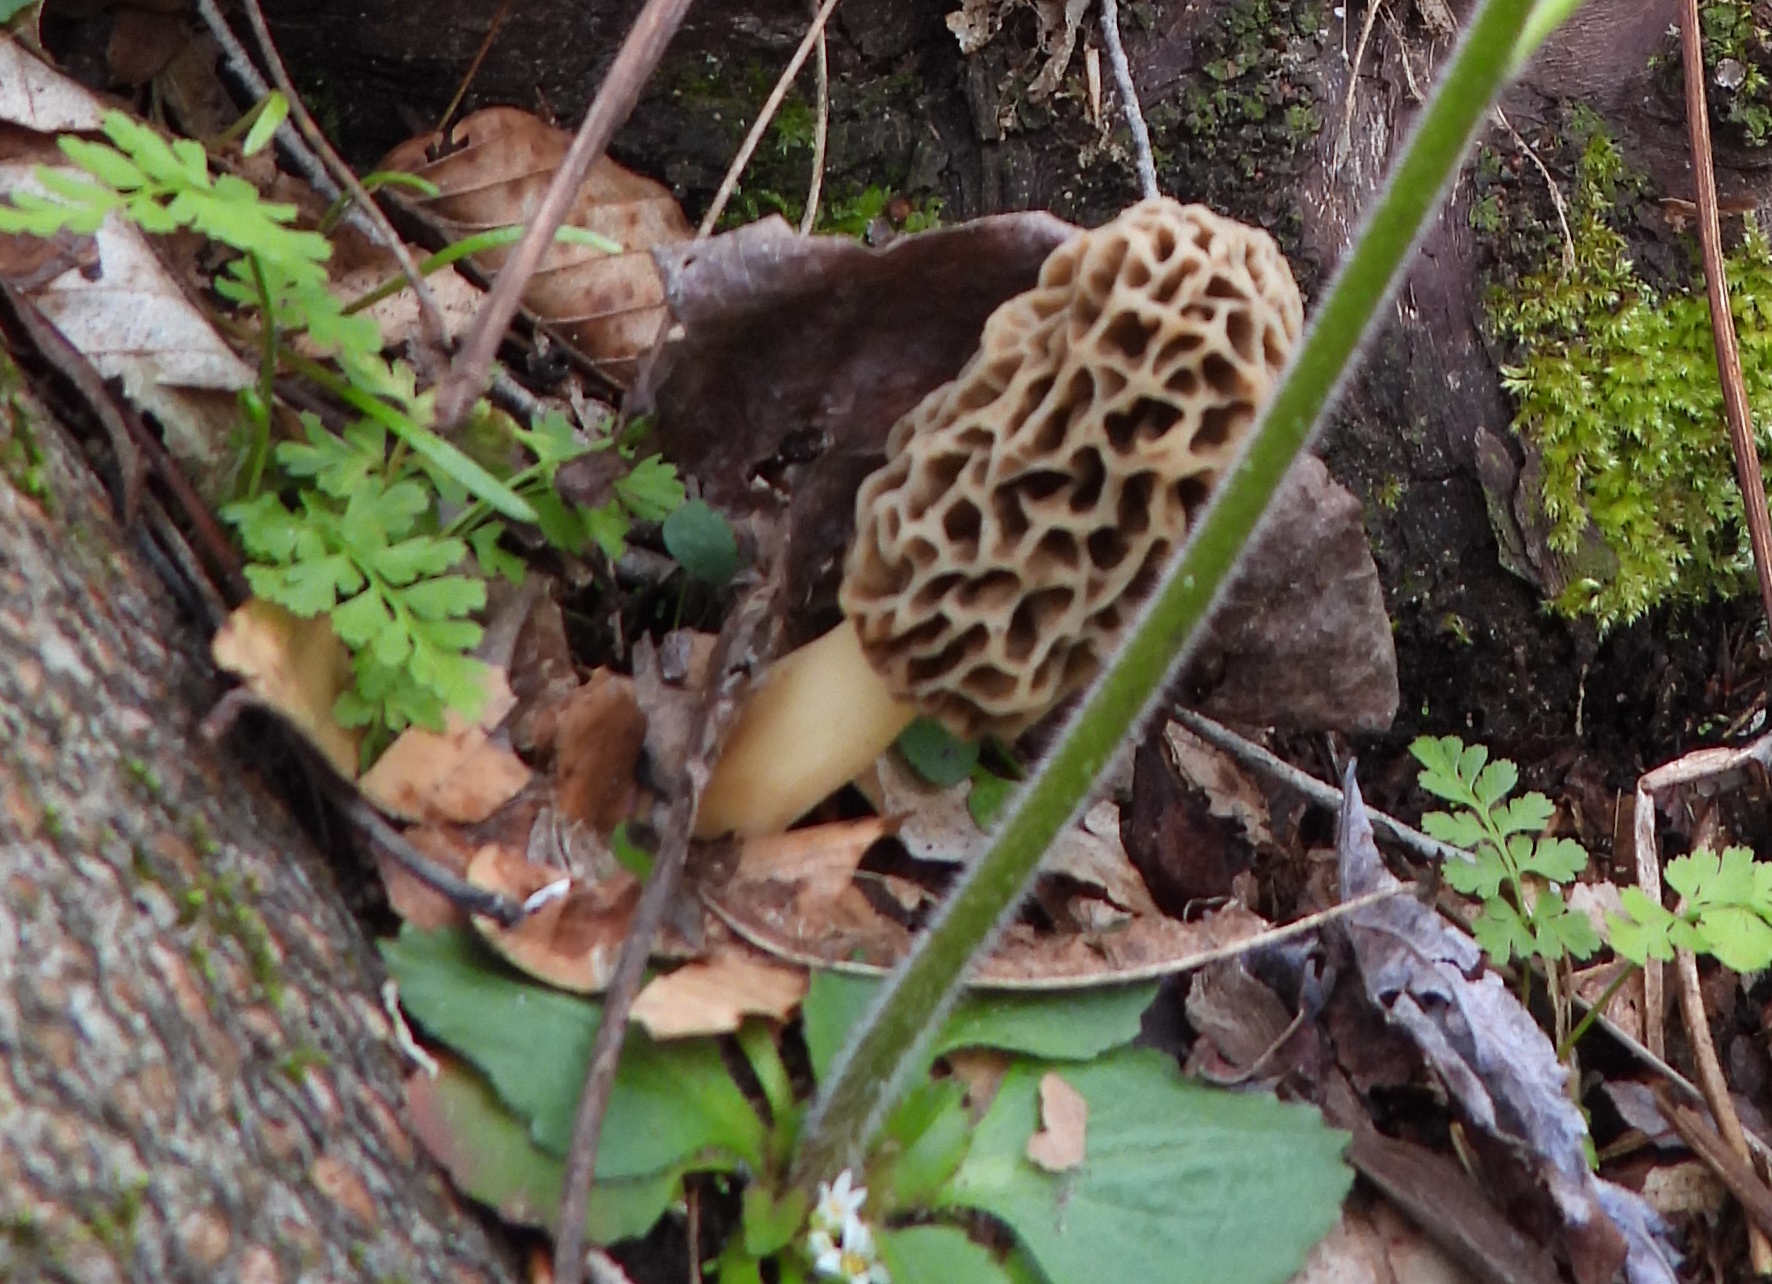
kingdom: Fungi
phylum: Ascomycota
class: Pezizomycetes
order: Pezizales
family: Morchellaceae
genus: Morchella
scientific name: Morchella americana
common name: White morel
